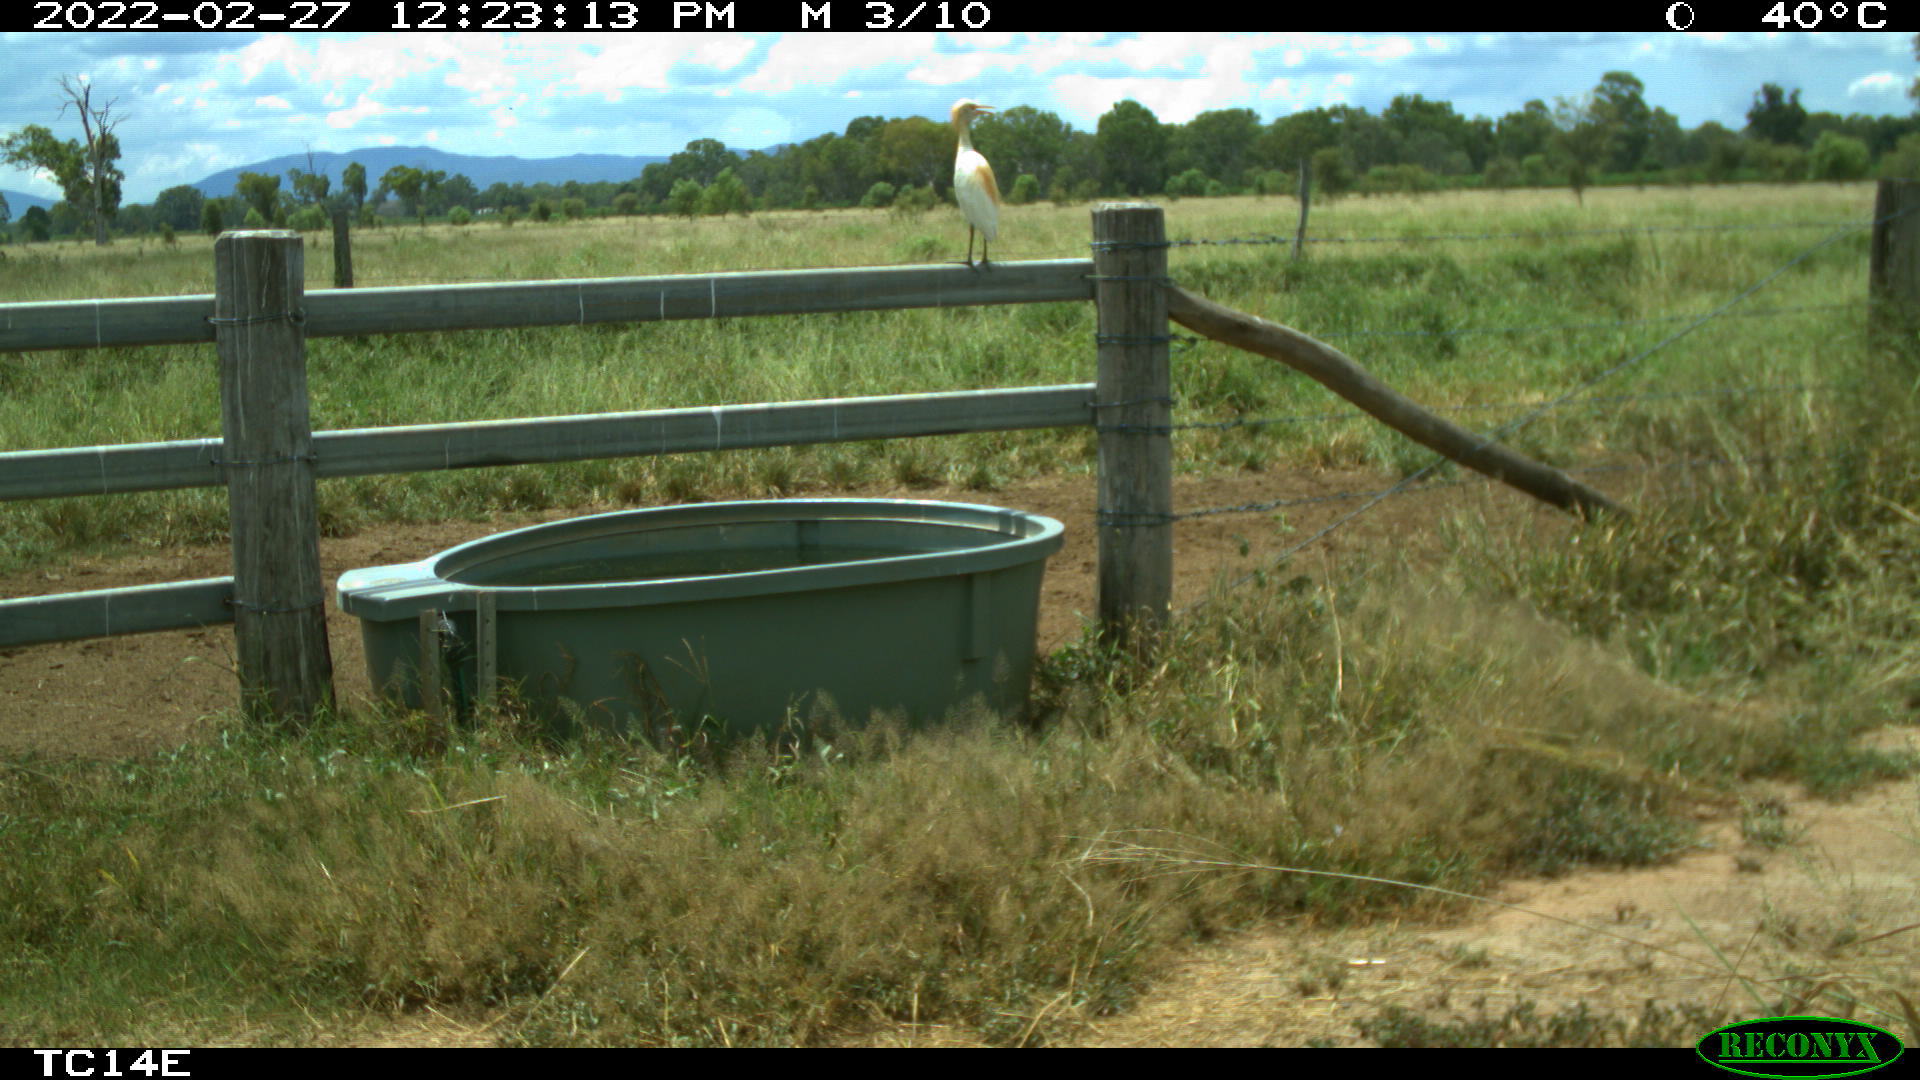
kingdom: Animalia
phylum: Chordata
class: Aves
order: Pelecaniformes
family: Ardeidae
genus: Bubulcus
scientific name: Bubulcus coromandus
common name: Eastern cattle egret
